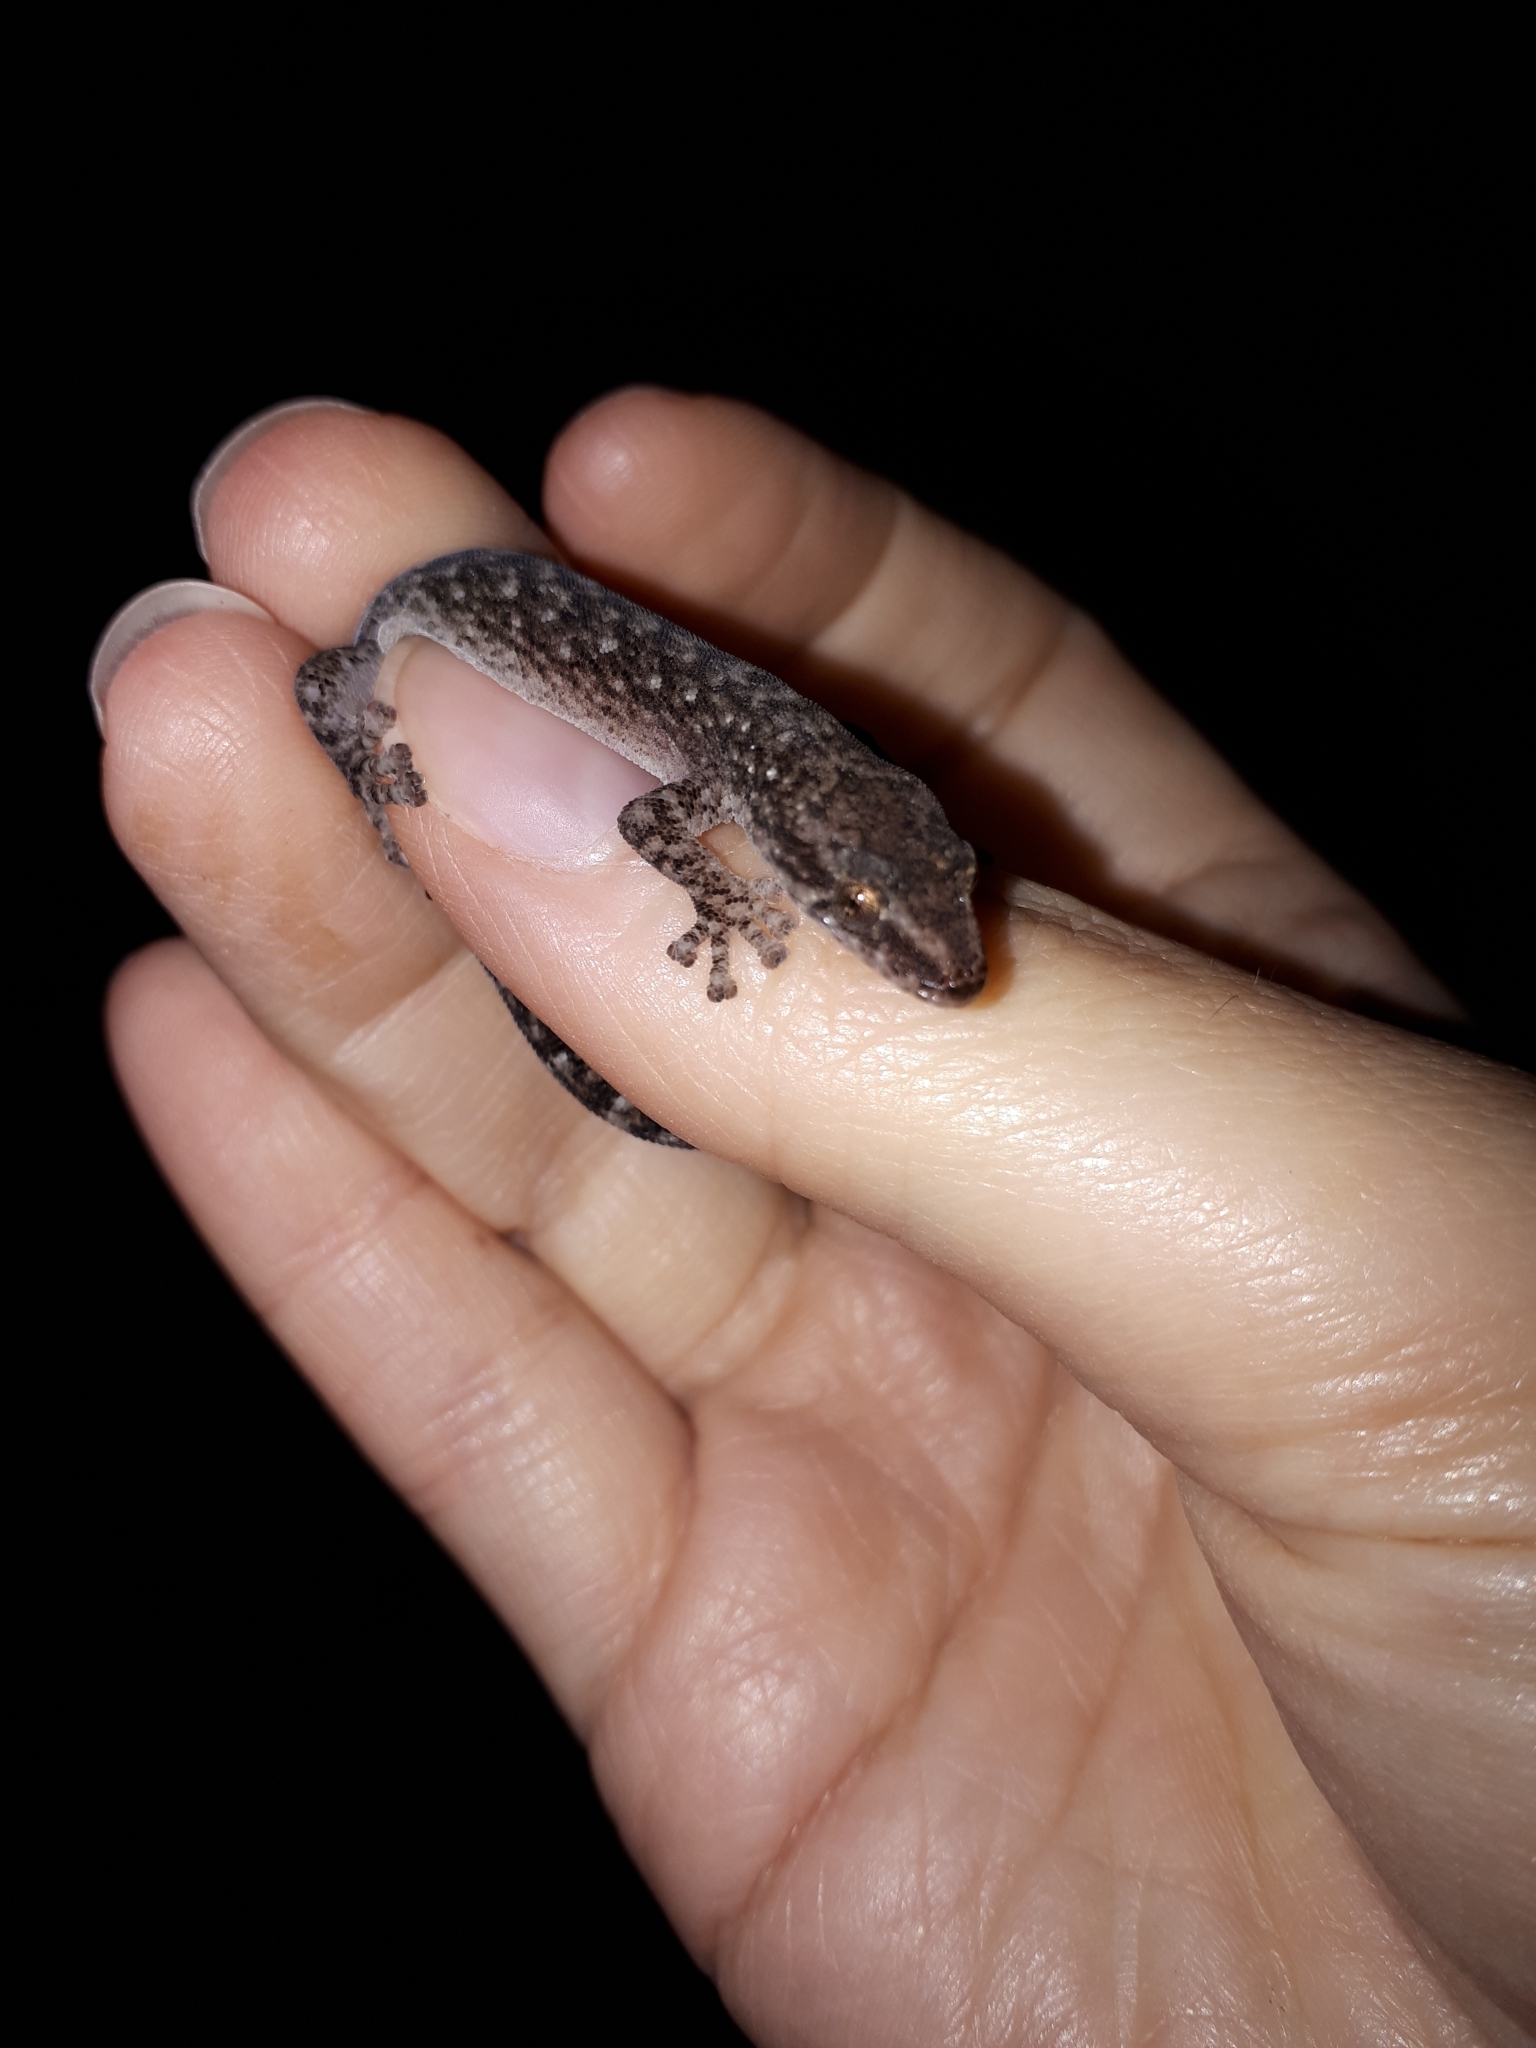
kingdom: Animalia
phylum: Chordata
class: Squamata
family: Gekkonidae
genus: Afrogecko
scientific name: Afrogecko porphyreus
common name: Marbled leaf-toed gecko
